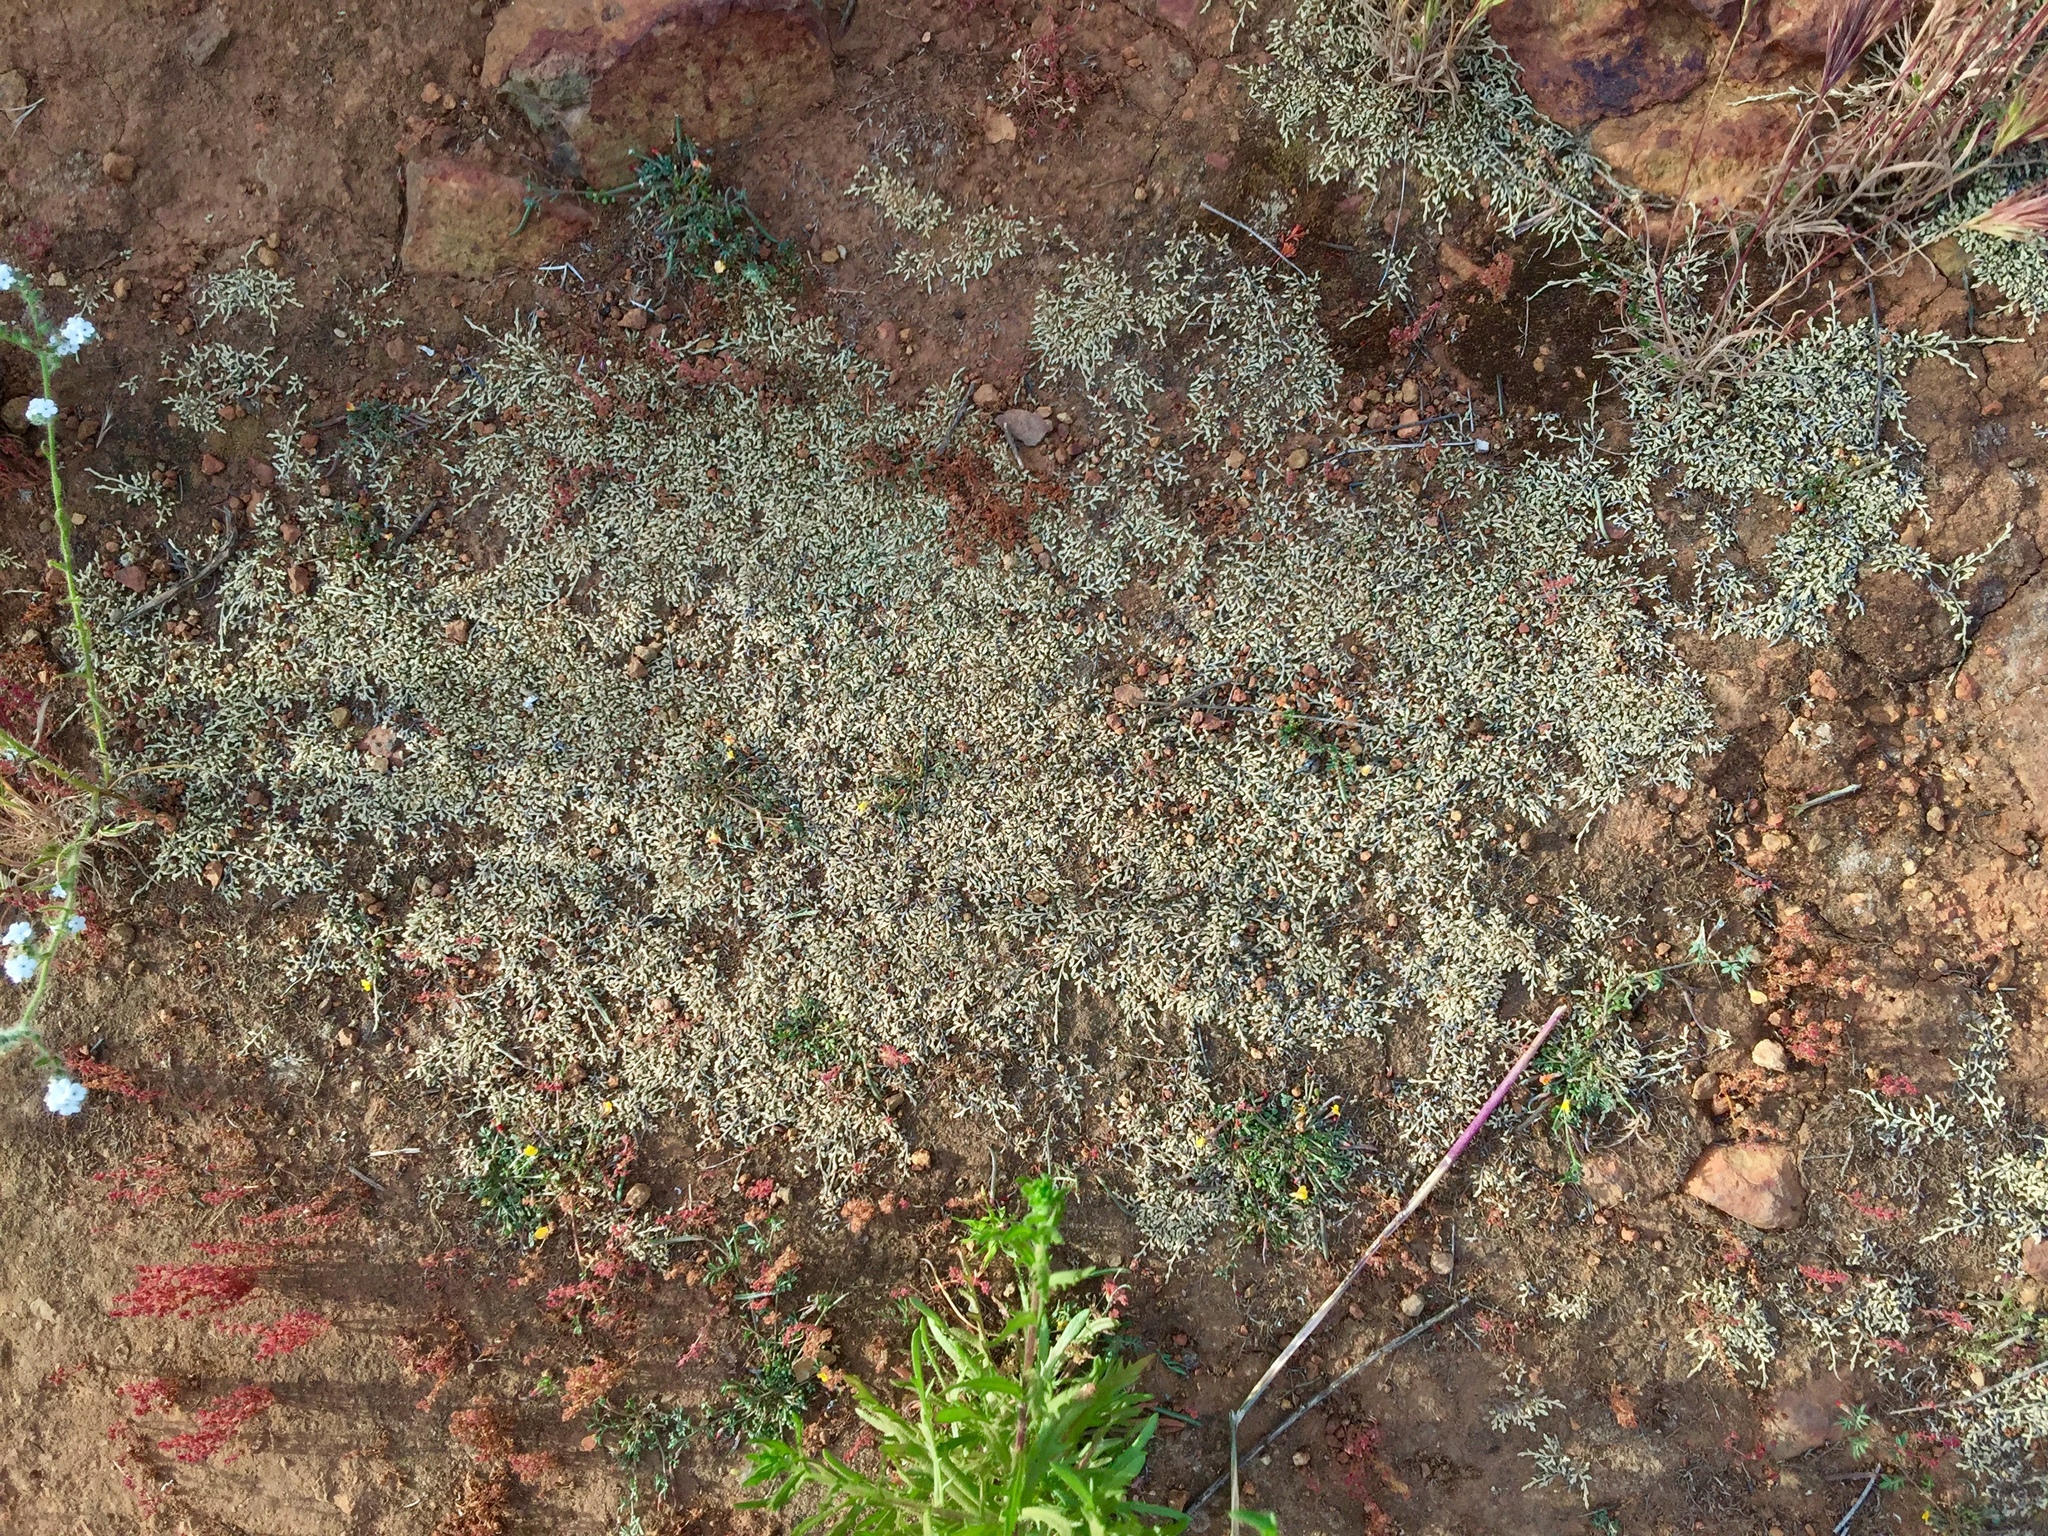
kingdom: Plantae
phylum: Tracheophyta
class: Lycopodiopsida
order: Selaginellales
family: Selaginellaceae
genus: Selaginella
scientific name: Selaginella cinerascens
